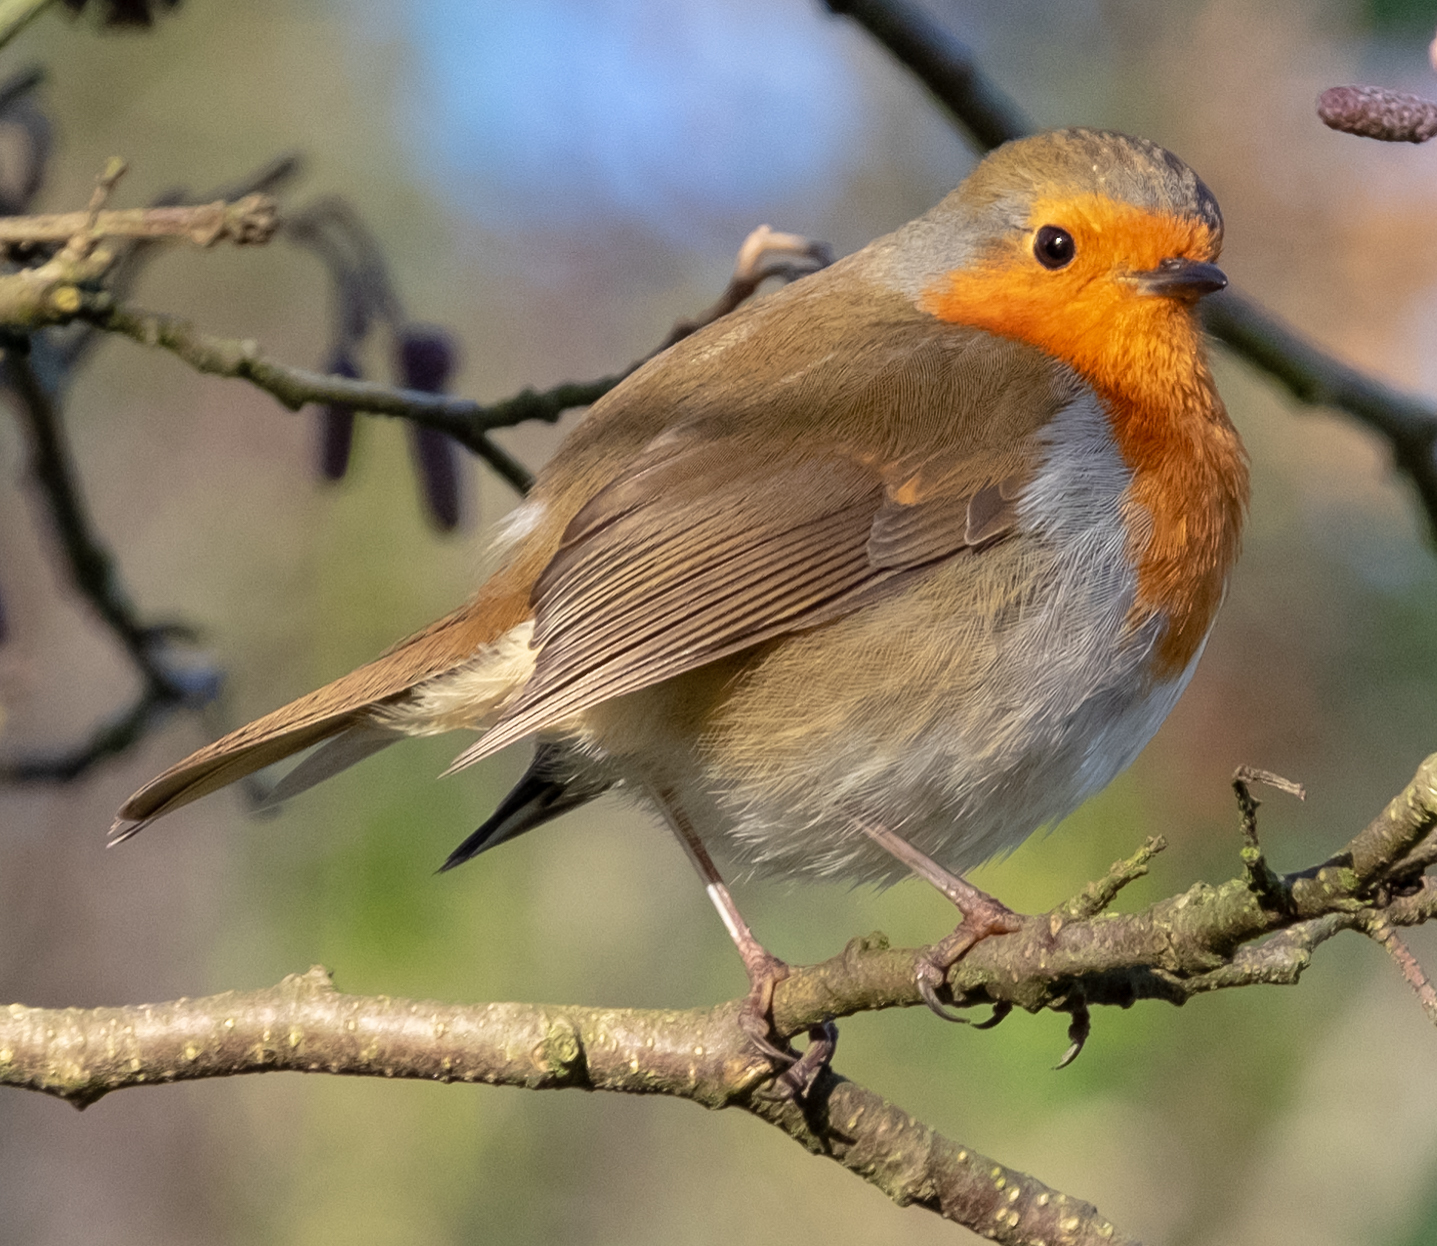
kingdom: Animalia
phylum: Chordata
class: Aves
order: Passeriformes
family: Muscicapidae
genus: Erithacus
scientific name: Erithacus rubecula
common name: European robin
